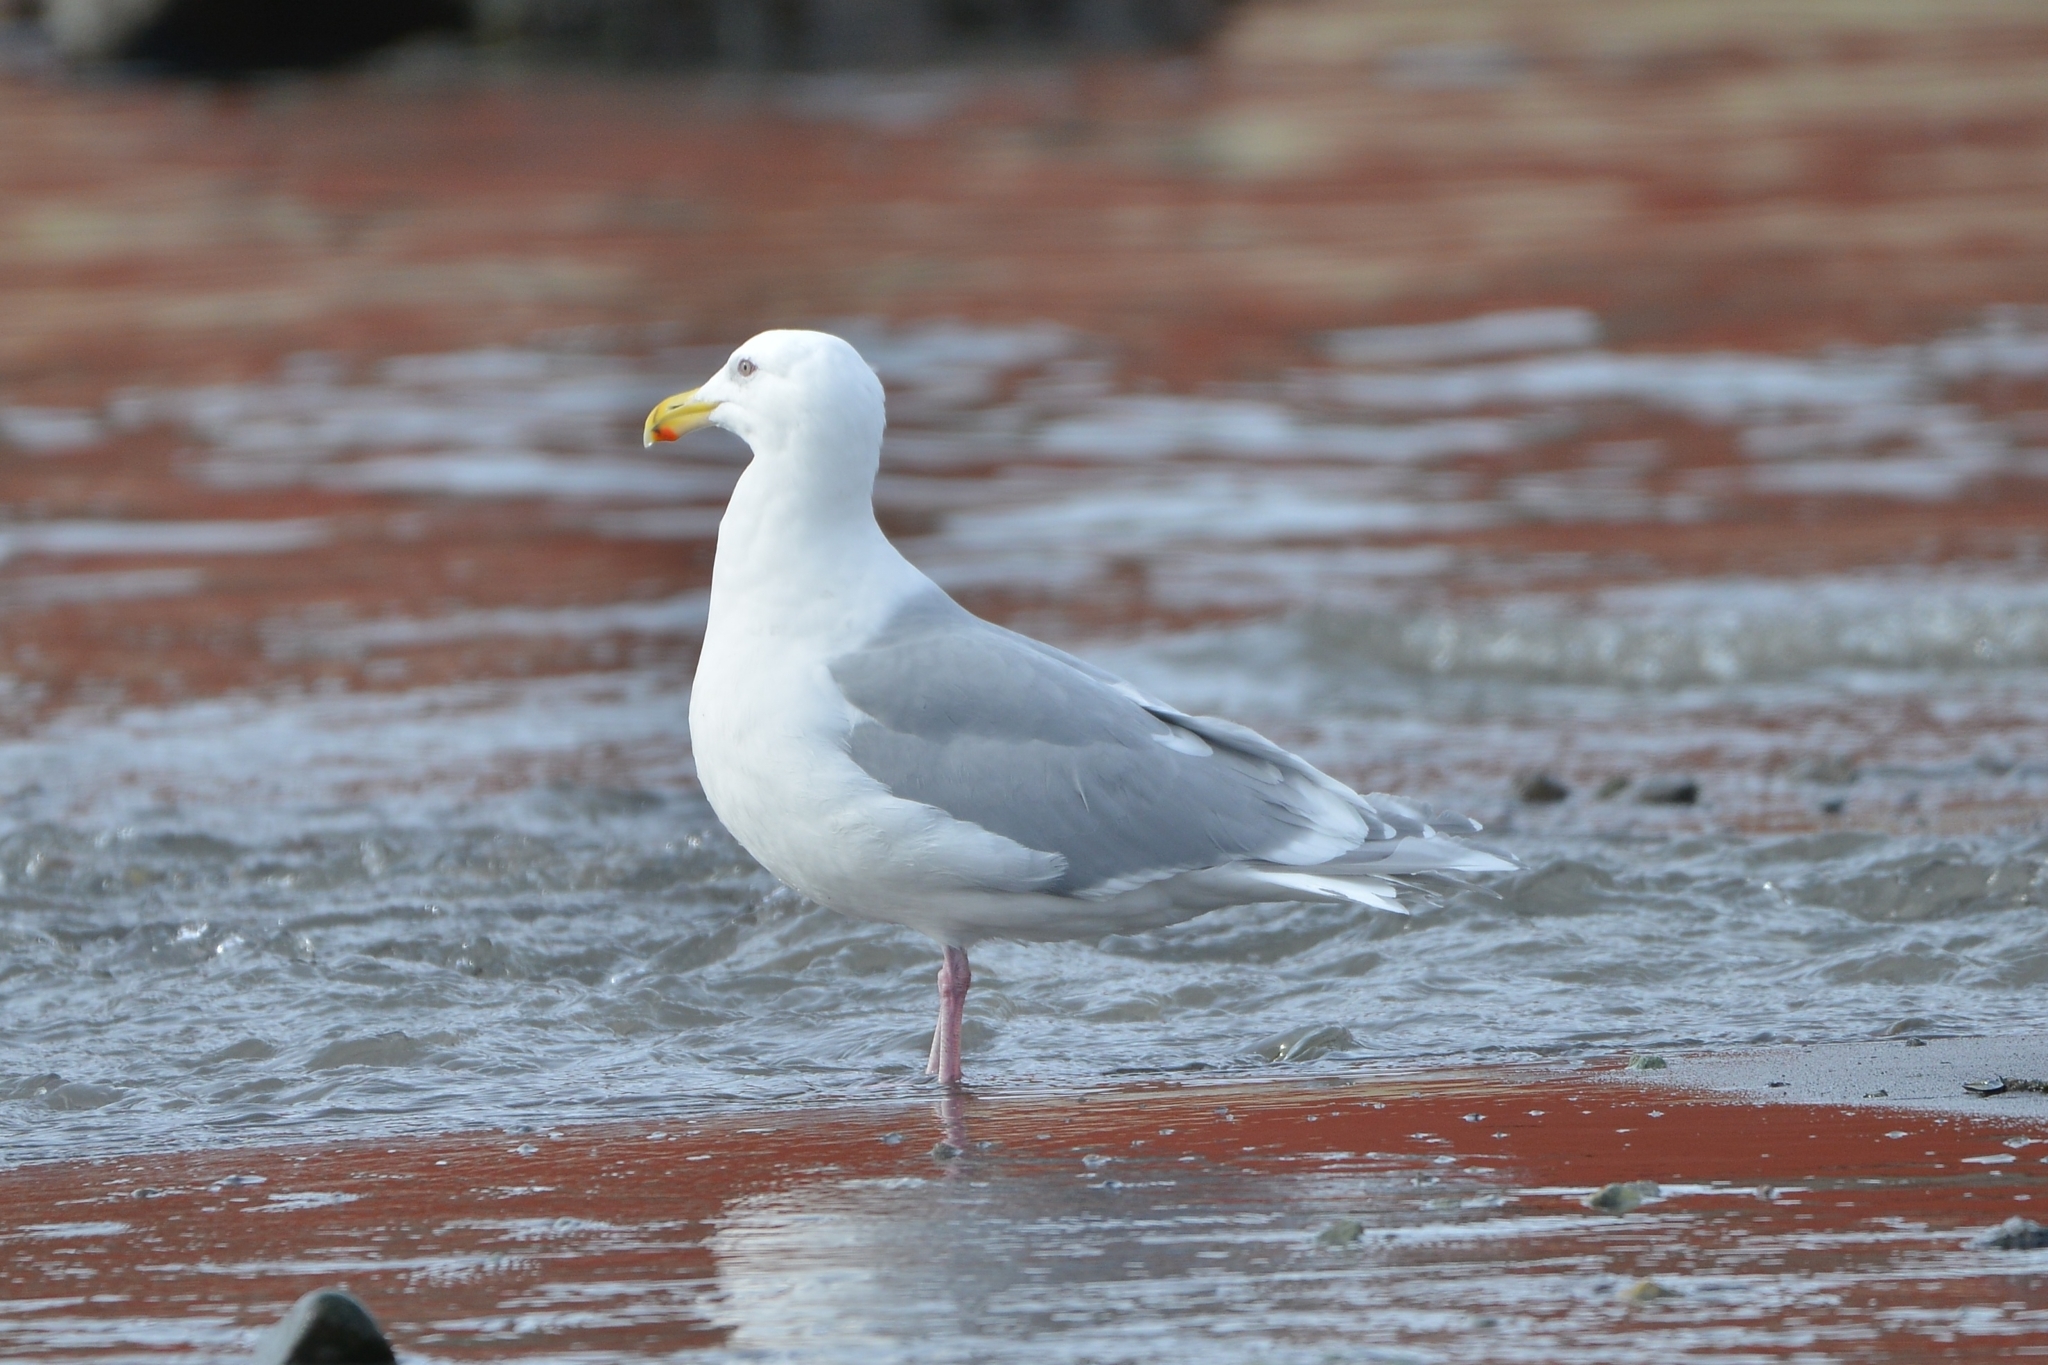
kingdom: Animalia
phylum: Chordata
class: Aves
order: Charadriiformes
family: Laridae
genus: Larus
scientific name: Larus glaucescens
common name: Glaucous-winged gull
